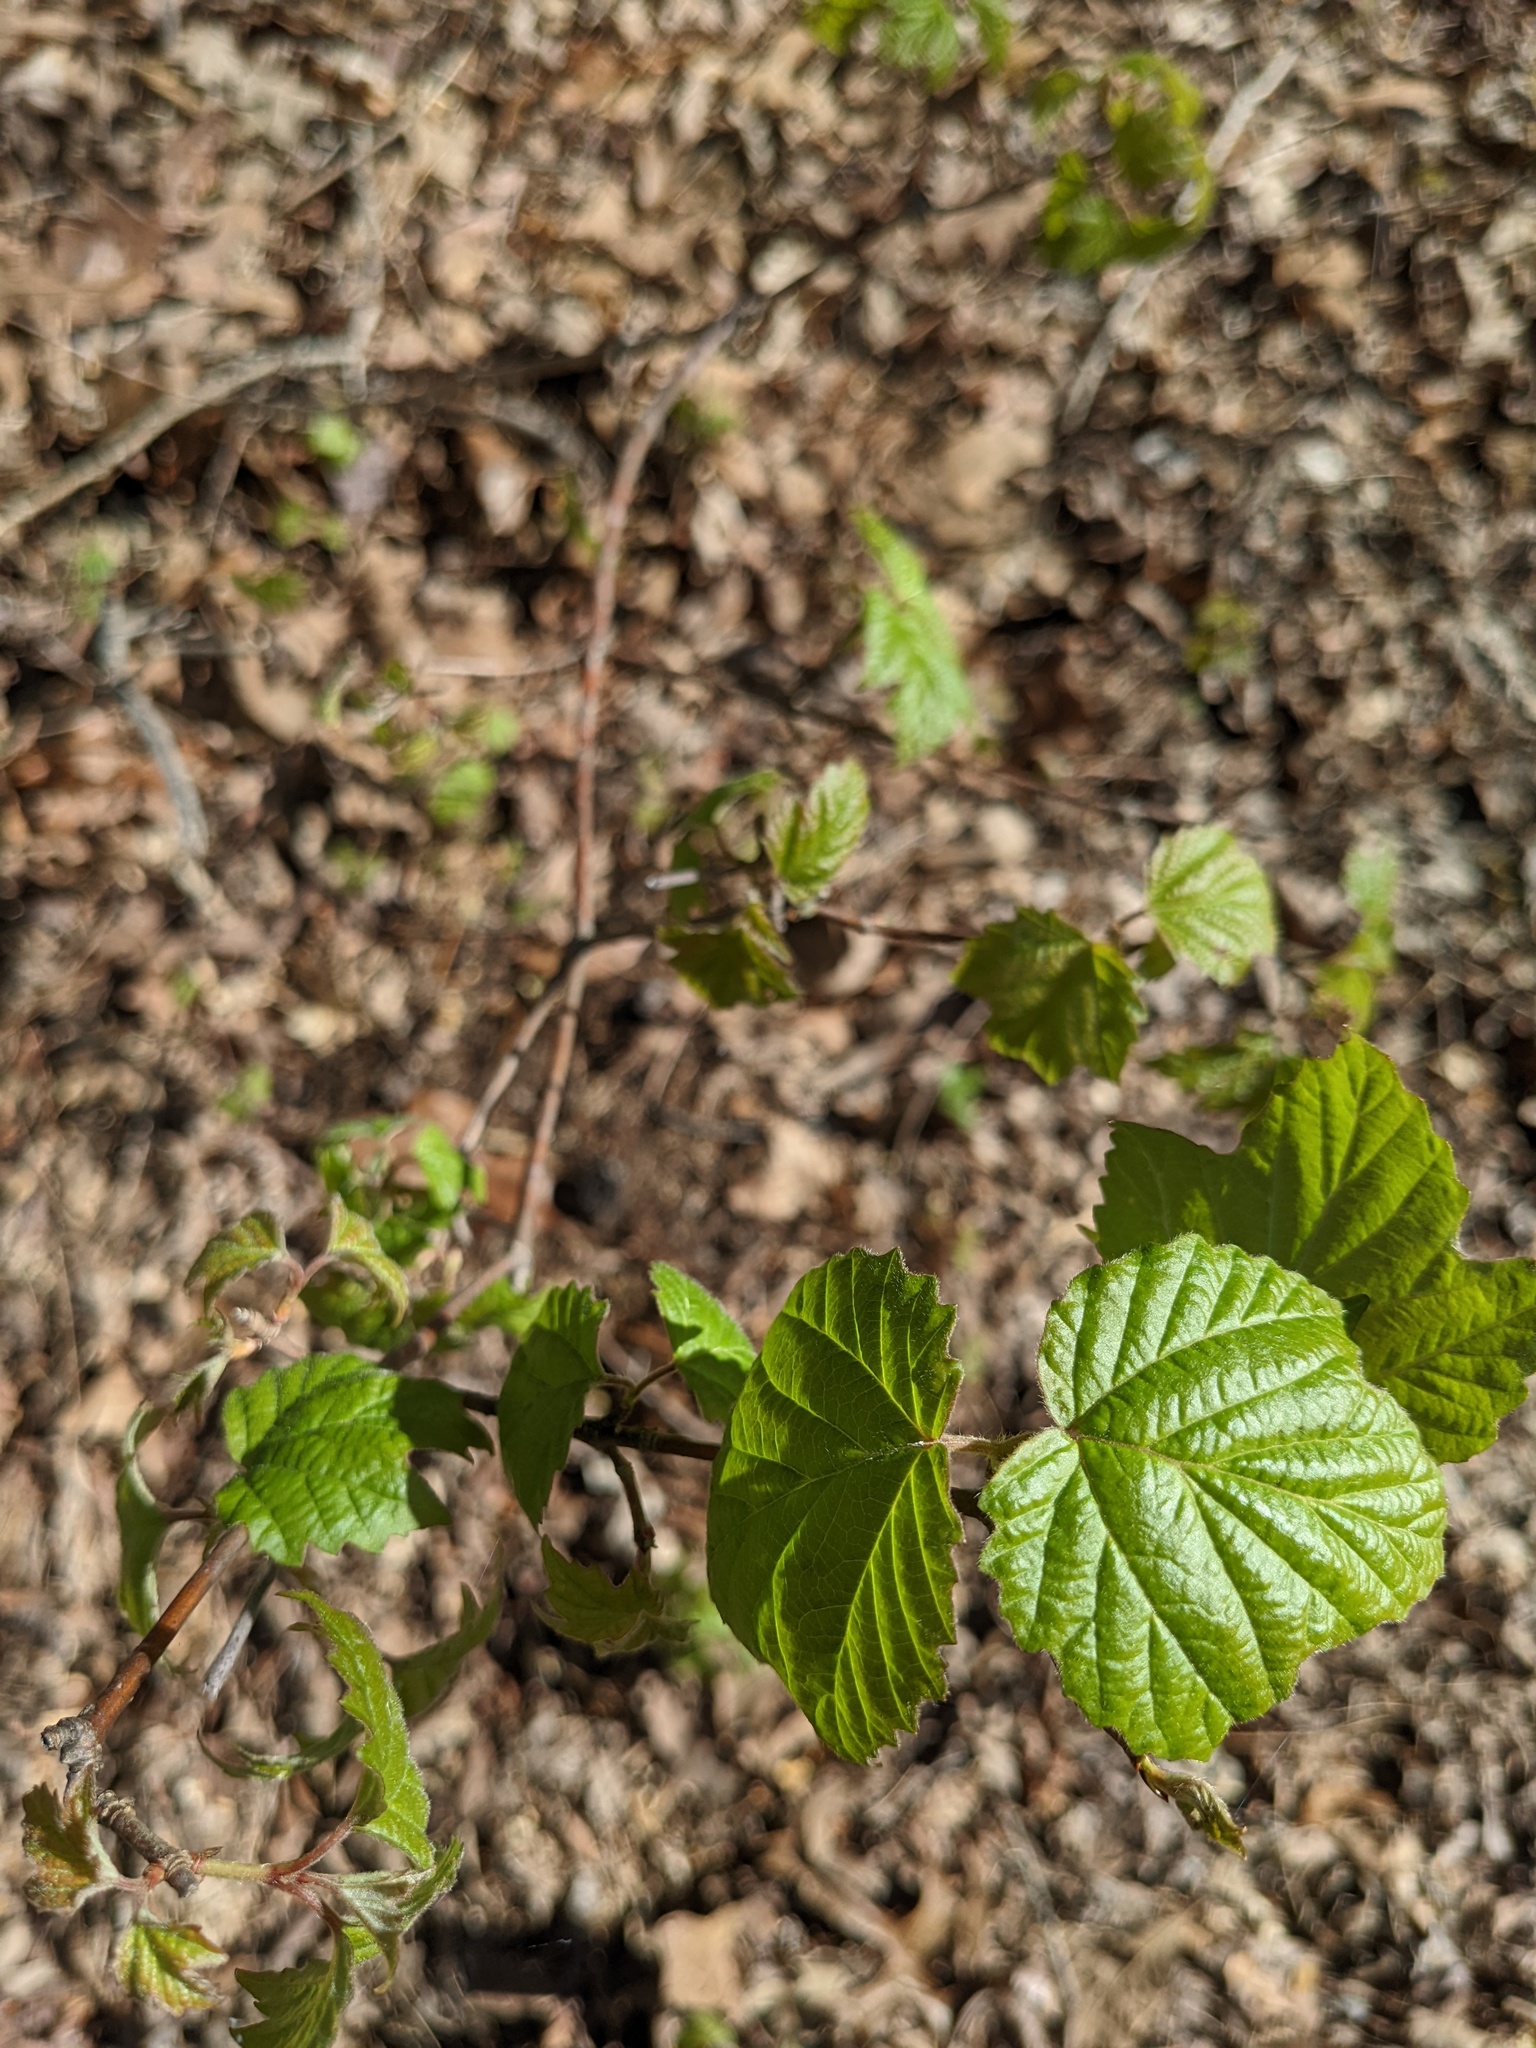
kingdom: Plantae
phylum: Tracheophyta
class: Magnoliopsida
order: Dipsacales
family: Viburnaceae
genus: Viburnum
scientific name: Viburnum acerifolium
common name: Dockmackie
